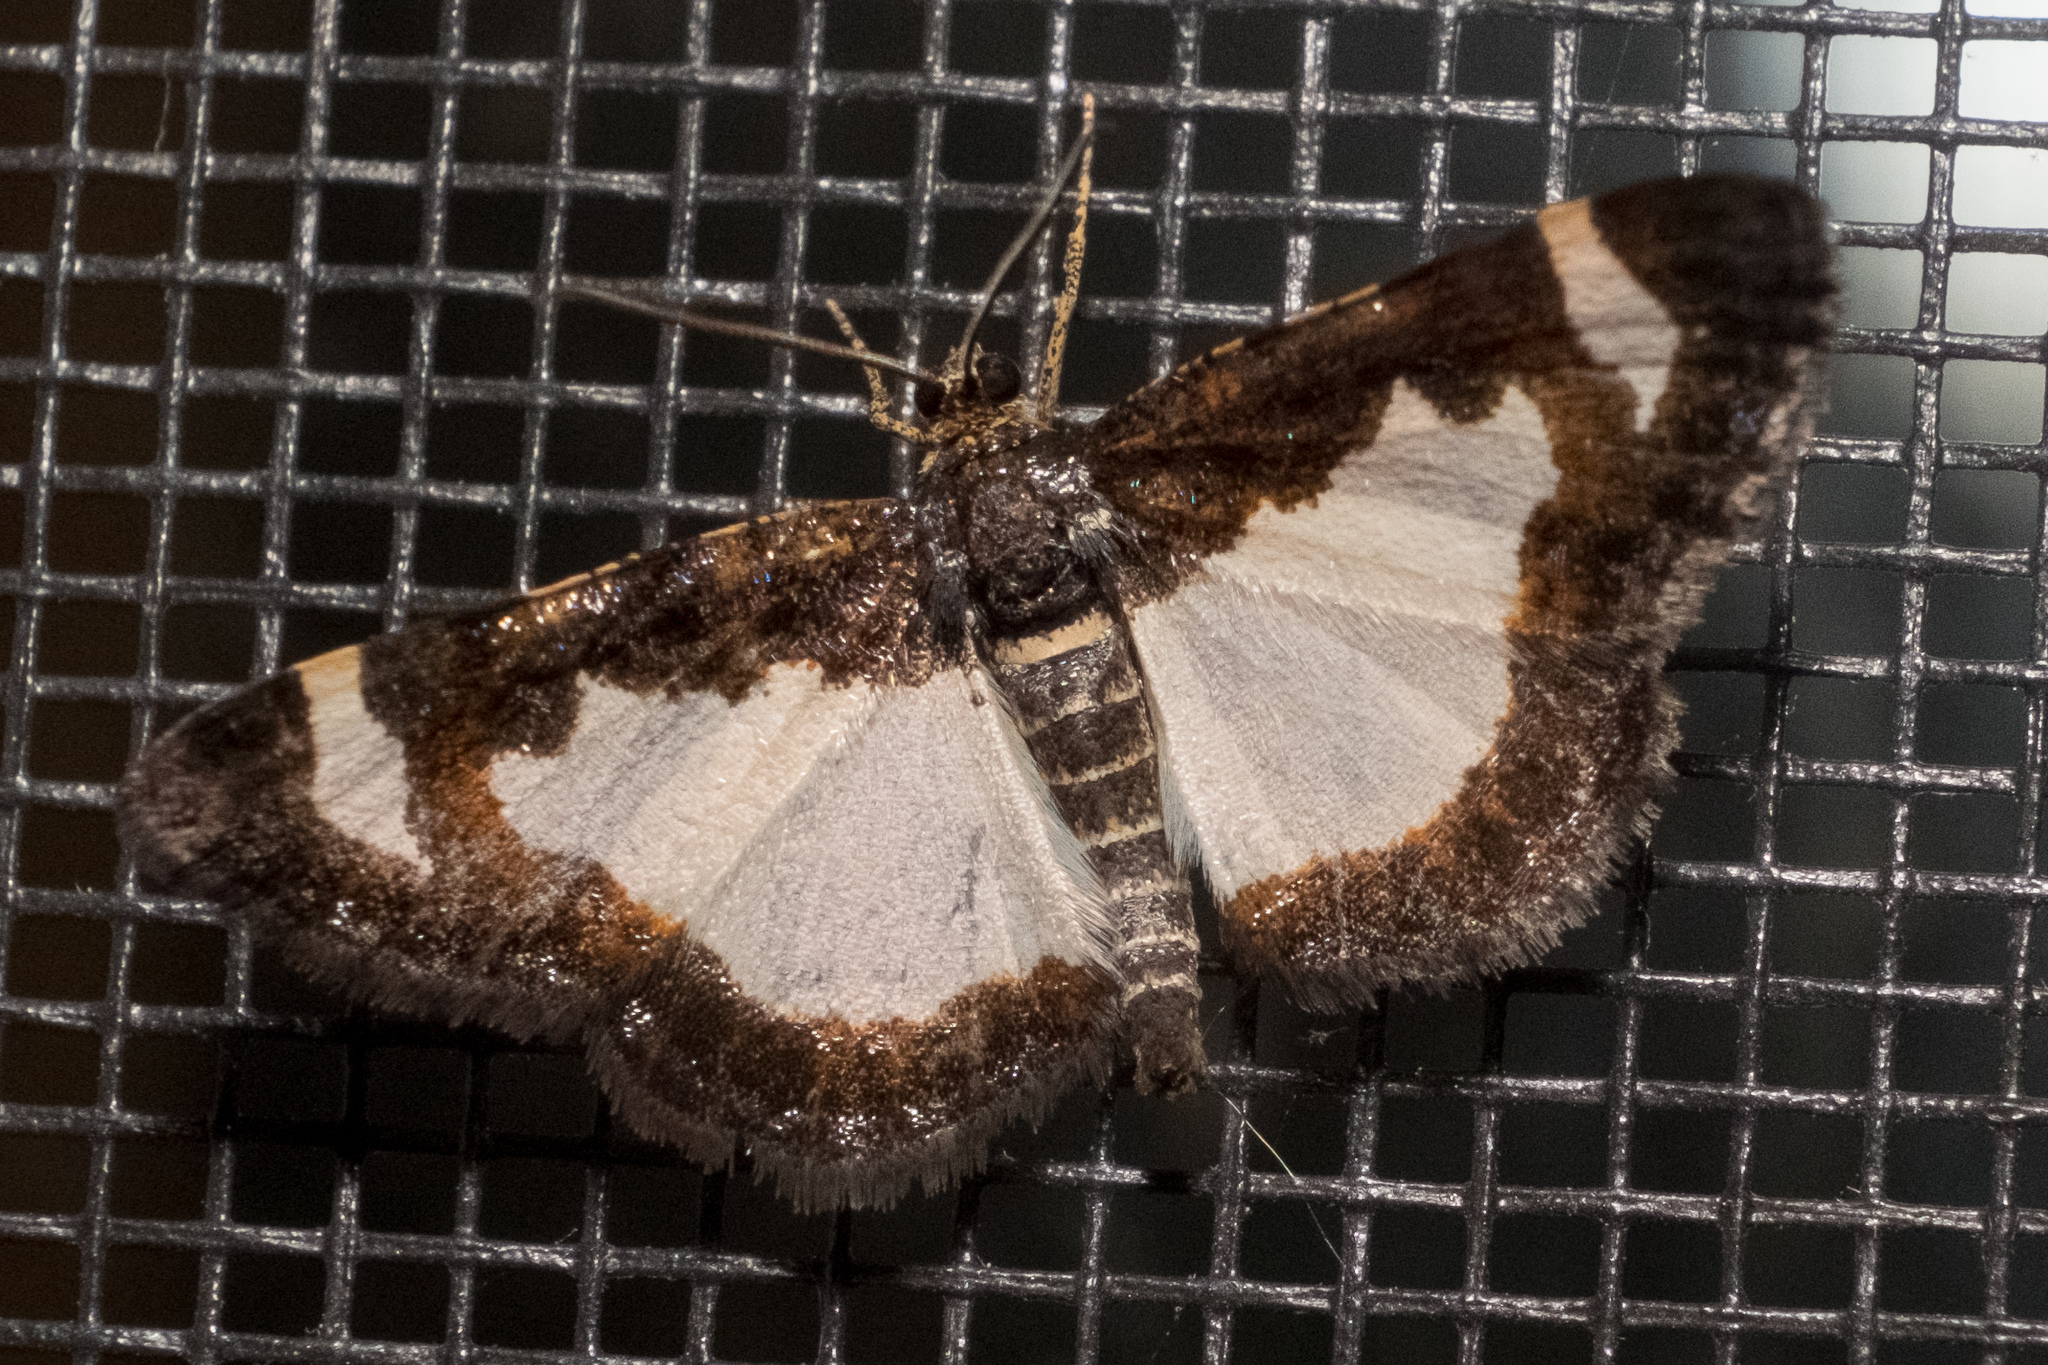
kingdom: Animalia
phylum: Arthropoda
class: Insecta
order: Lepidoptera
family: Geometridae
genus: Heliomata
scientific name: Heliomata cycladata
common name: Common spring moth
